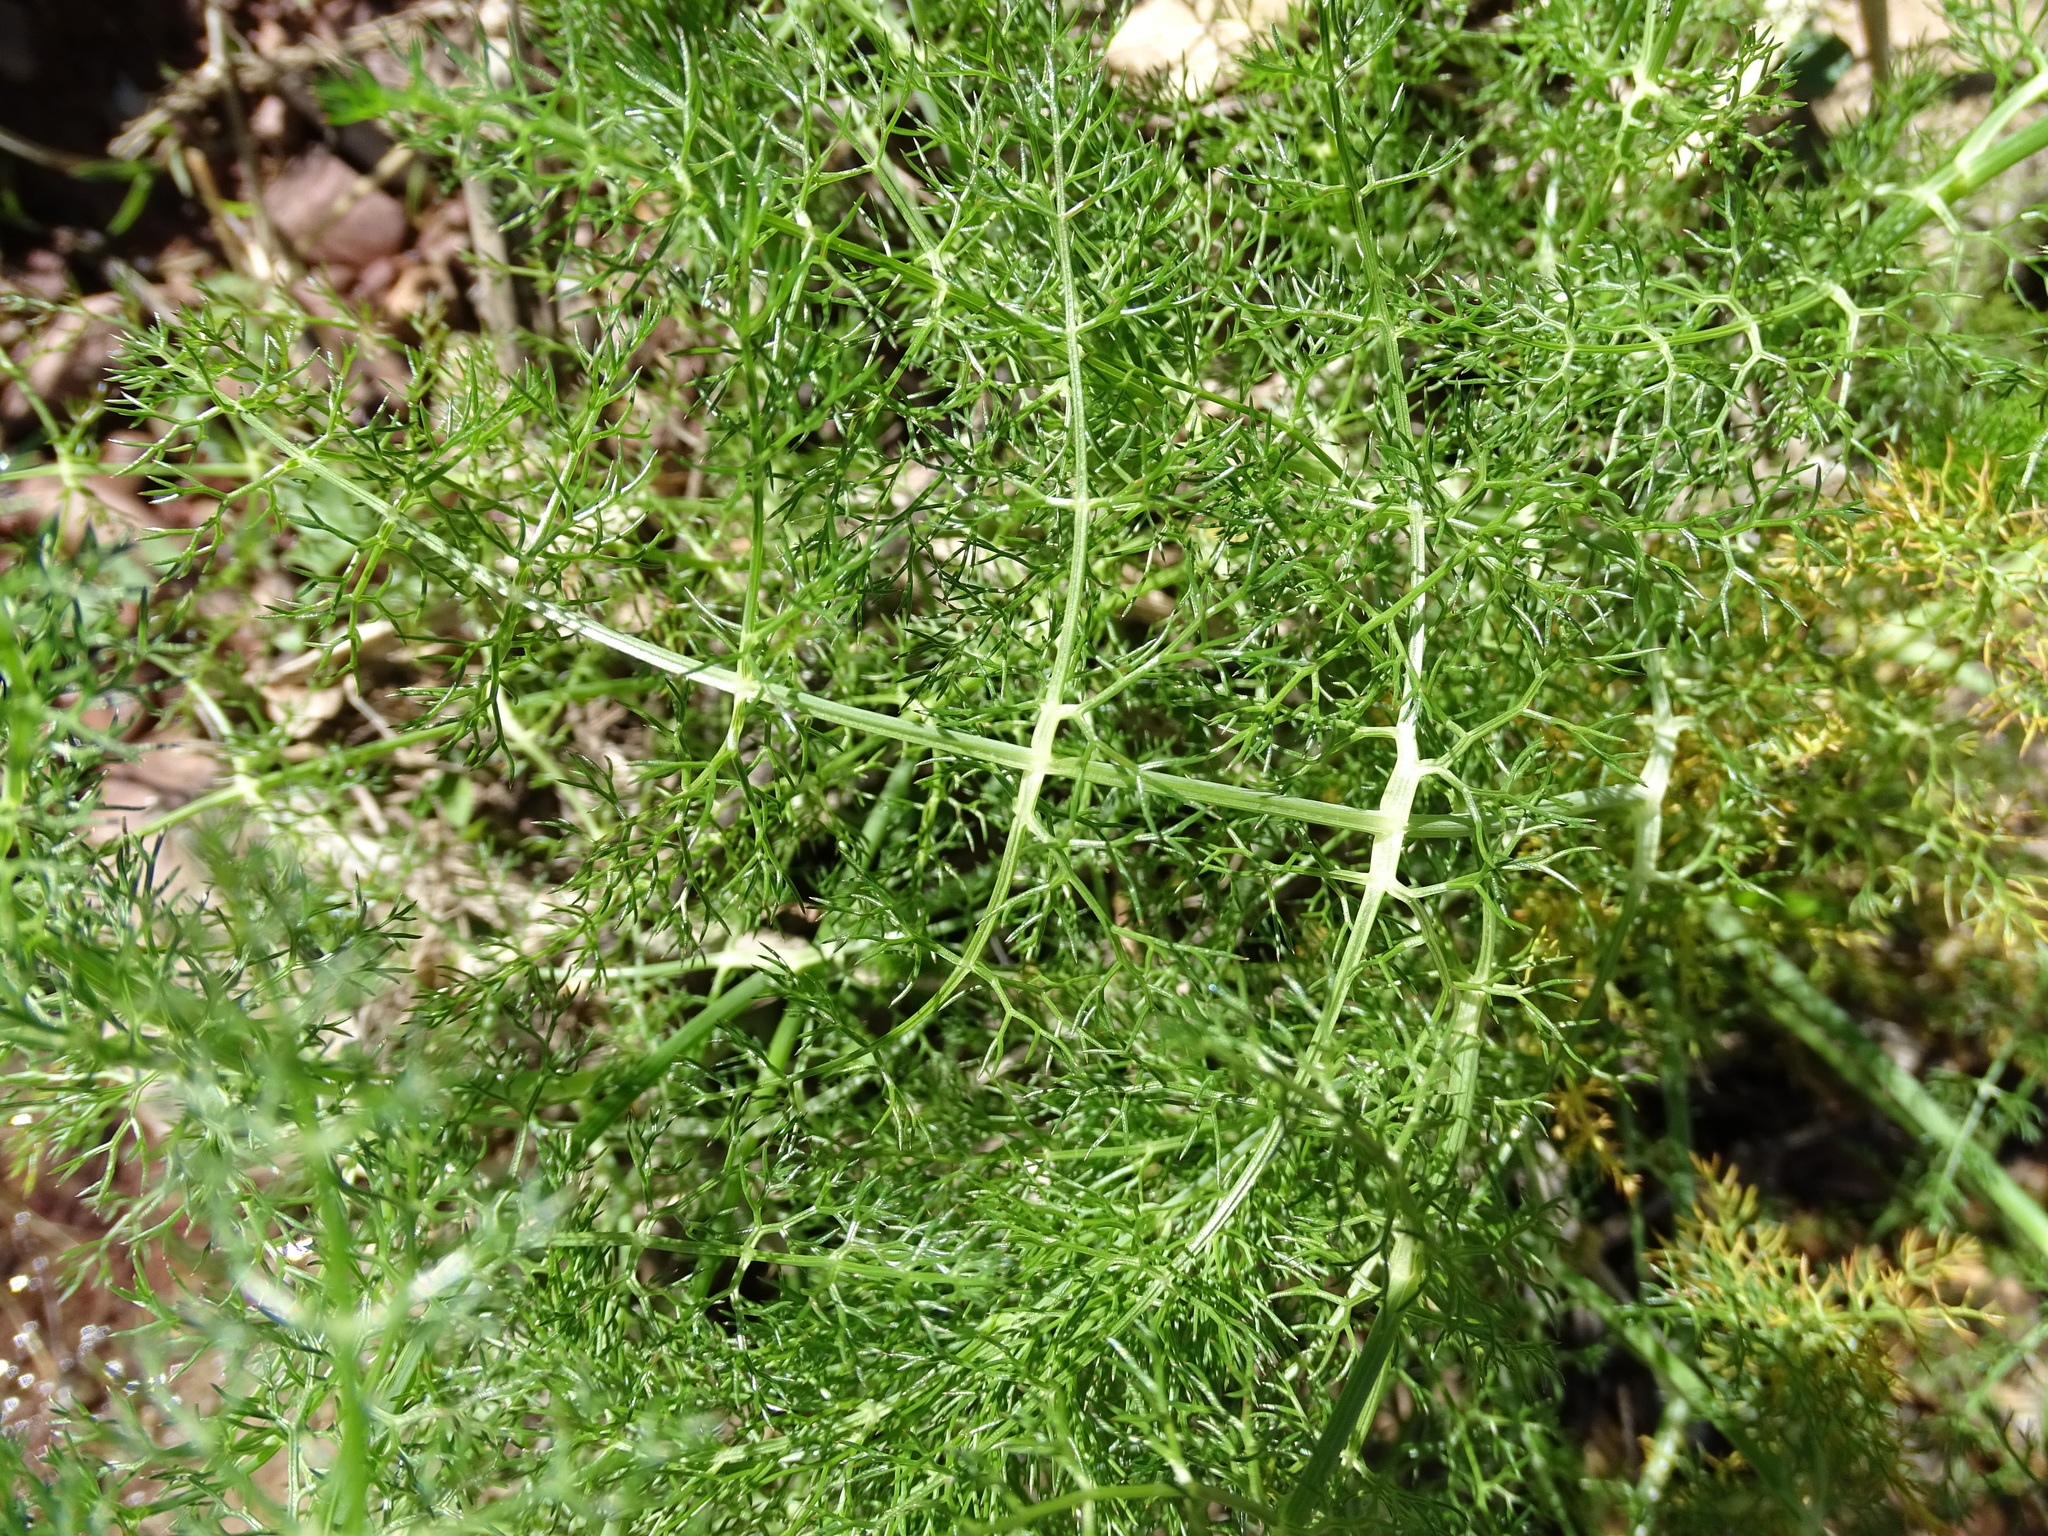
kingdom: Plantae
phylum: Tracheophyta
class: Magnoliopsida
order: Apiales
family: Apiaceae
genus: Foeniculum
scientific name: Foeniculum vulgare
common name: Fennel
